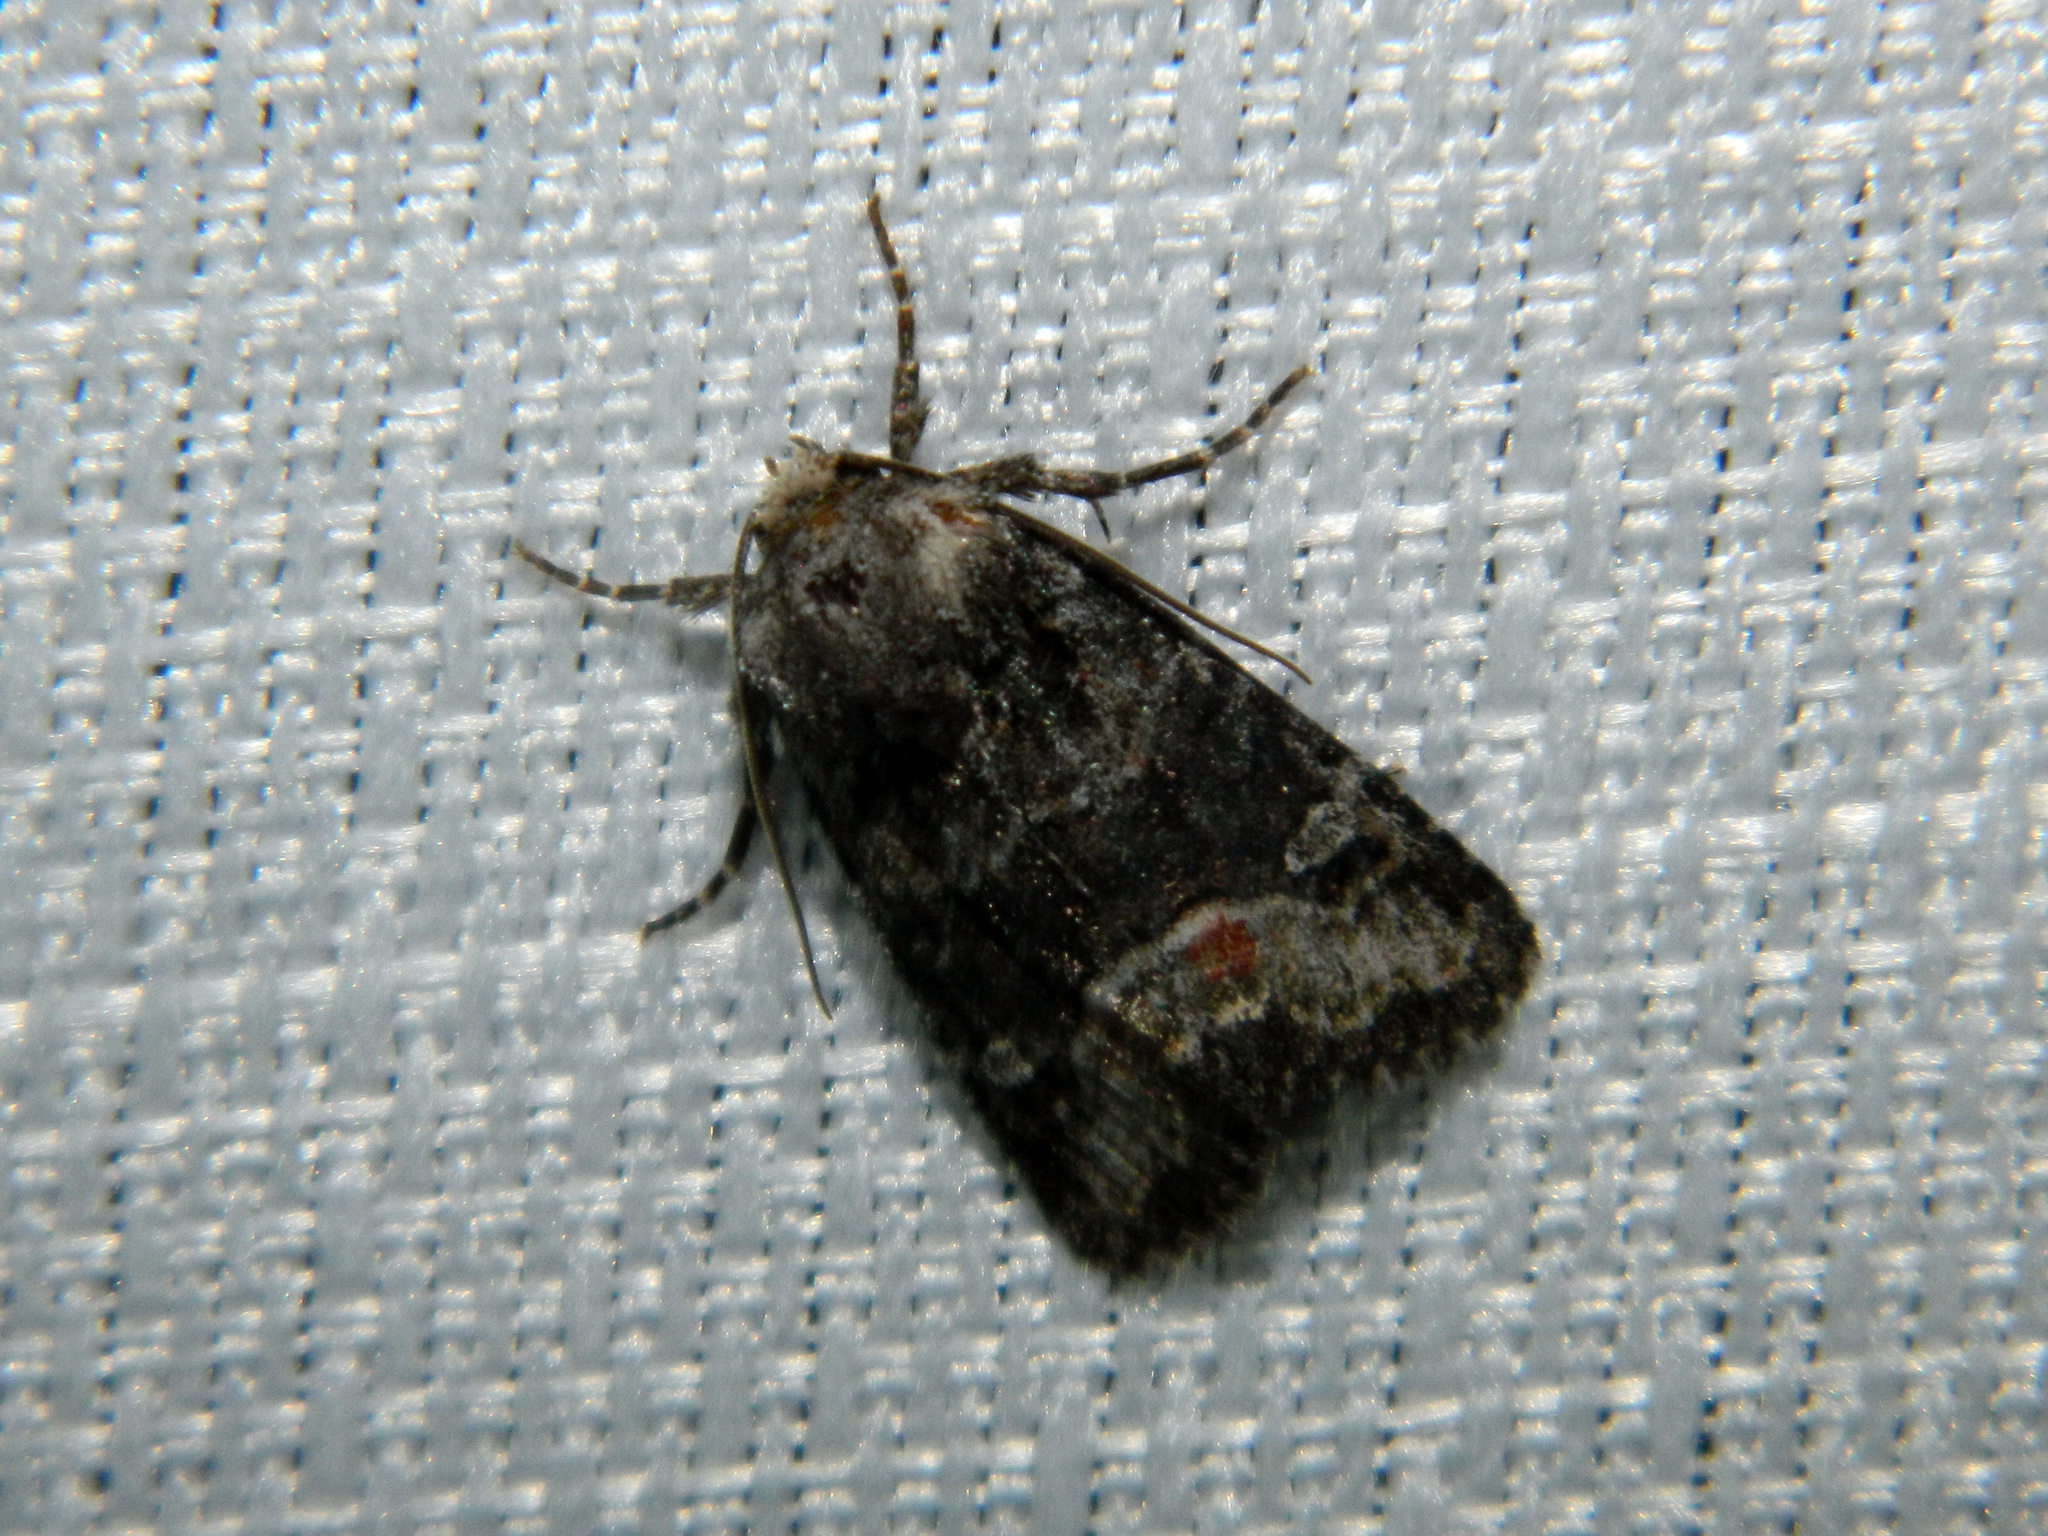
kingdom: Animalia
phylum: Arthropoda
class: Insecta
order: Lepidoptera
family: Noctuidae
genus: Lacinipolia
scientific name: Lacinipolia olivacea
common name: Olive arches moth
